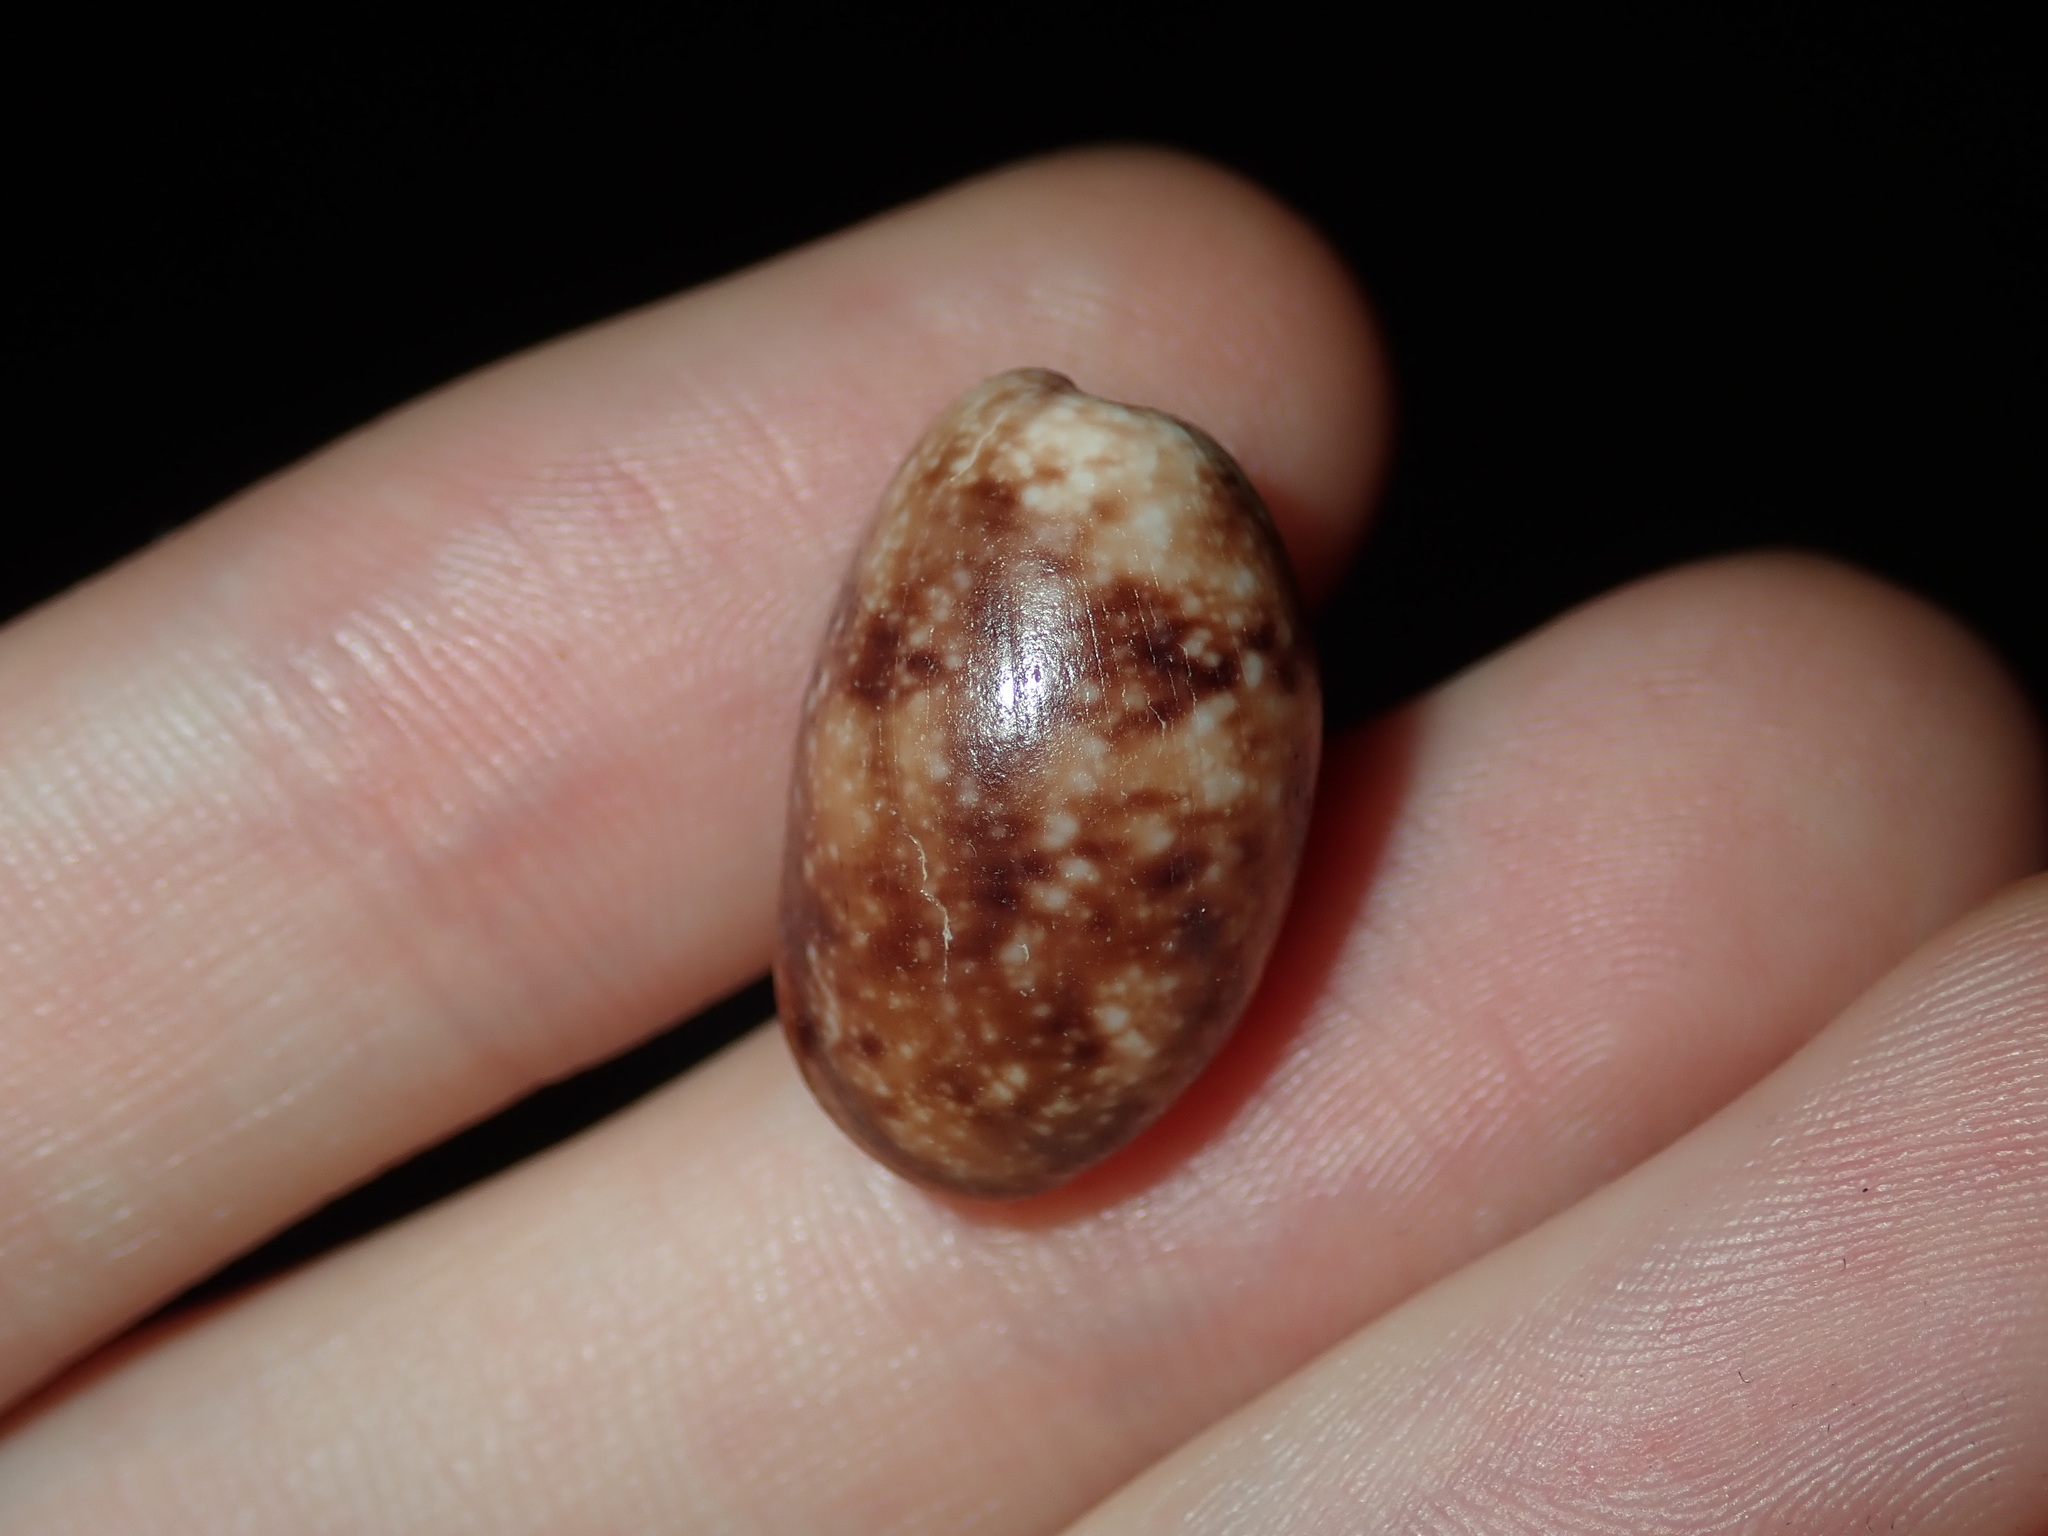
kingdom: Animalia
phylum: Mollusca
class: Gastropoda
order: Cephalaspidea
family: Bullidae
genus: Bulla
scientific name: Bulla mabillei
